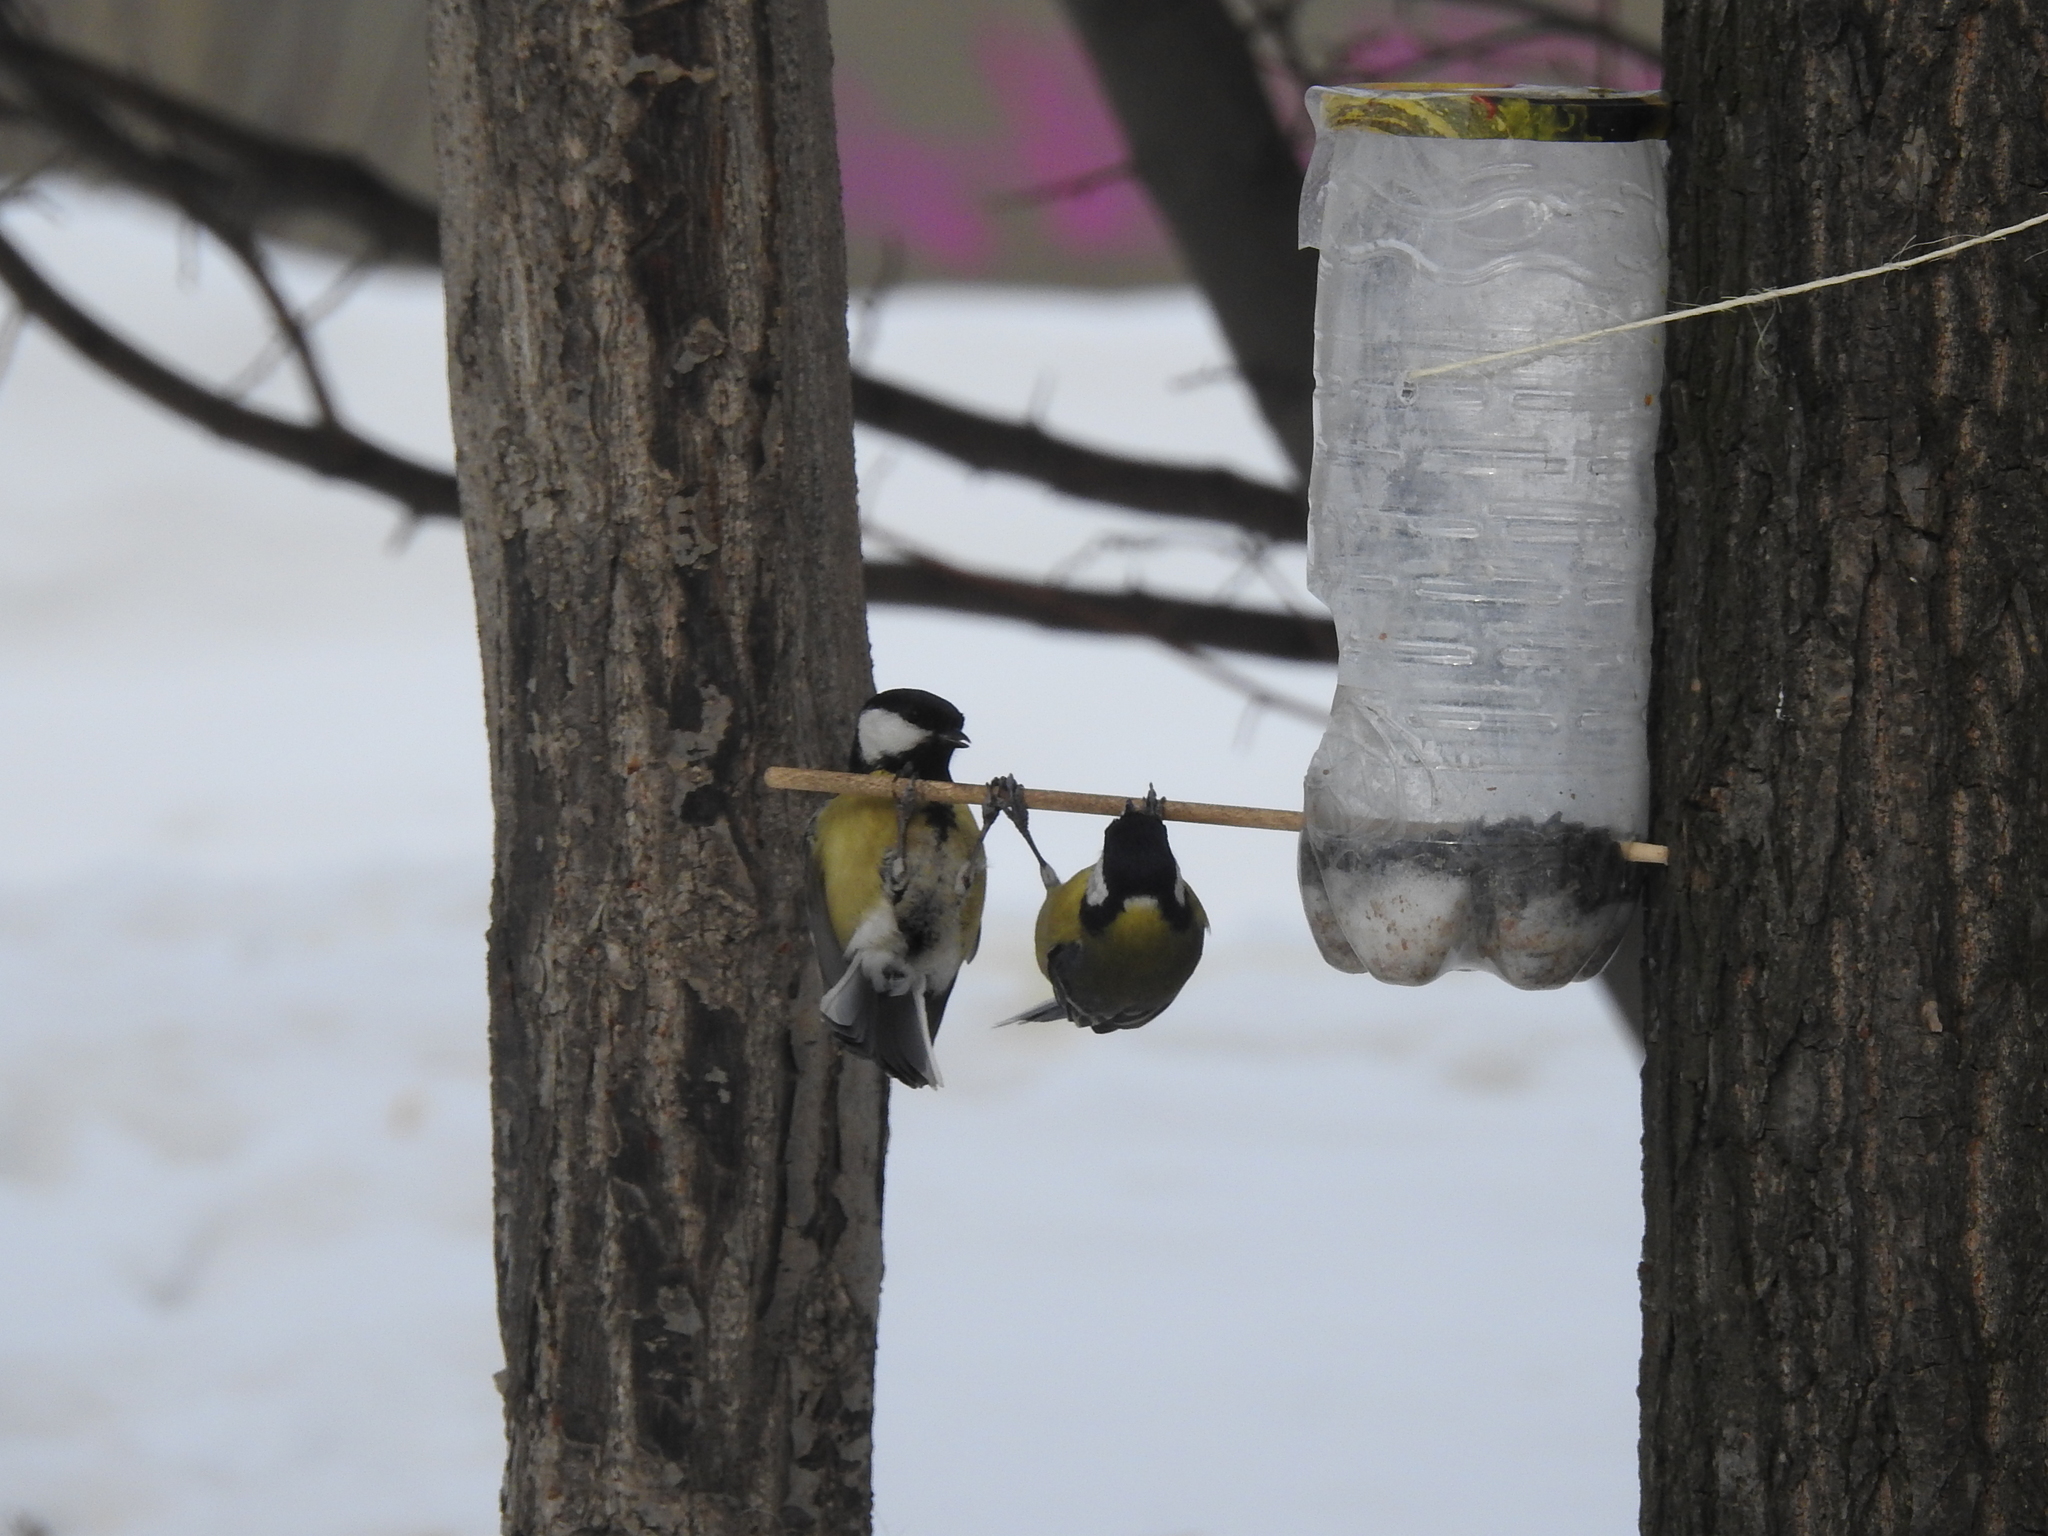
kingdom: Animalia
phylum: Chordata
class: Aves
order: Passeriformes
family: Paridae
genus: Parus
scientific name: Parus major
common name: Great tit
